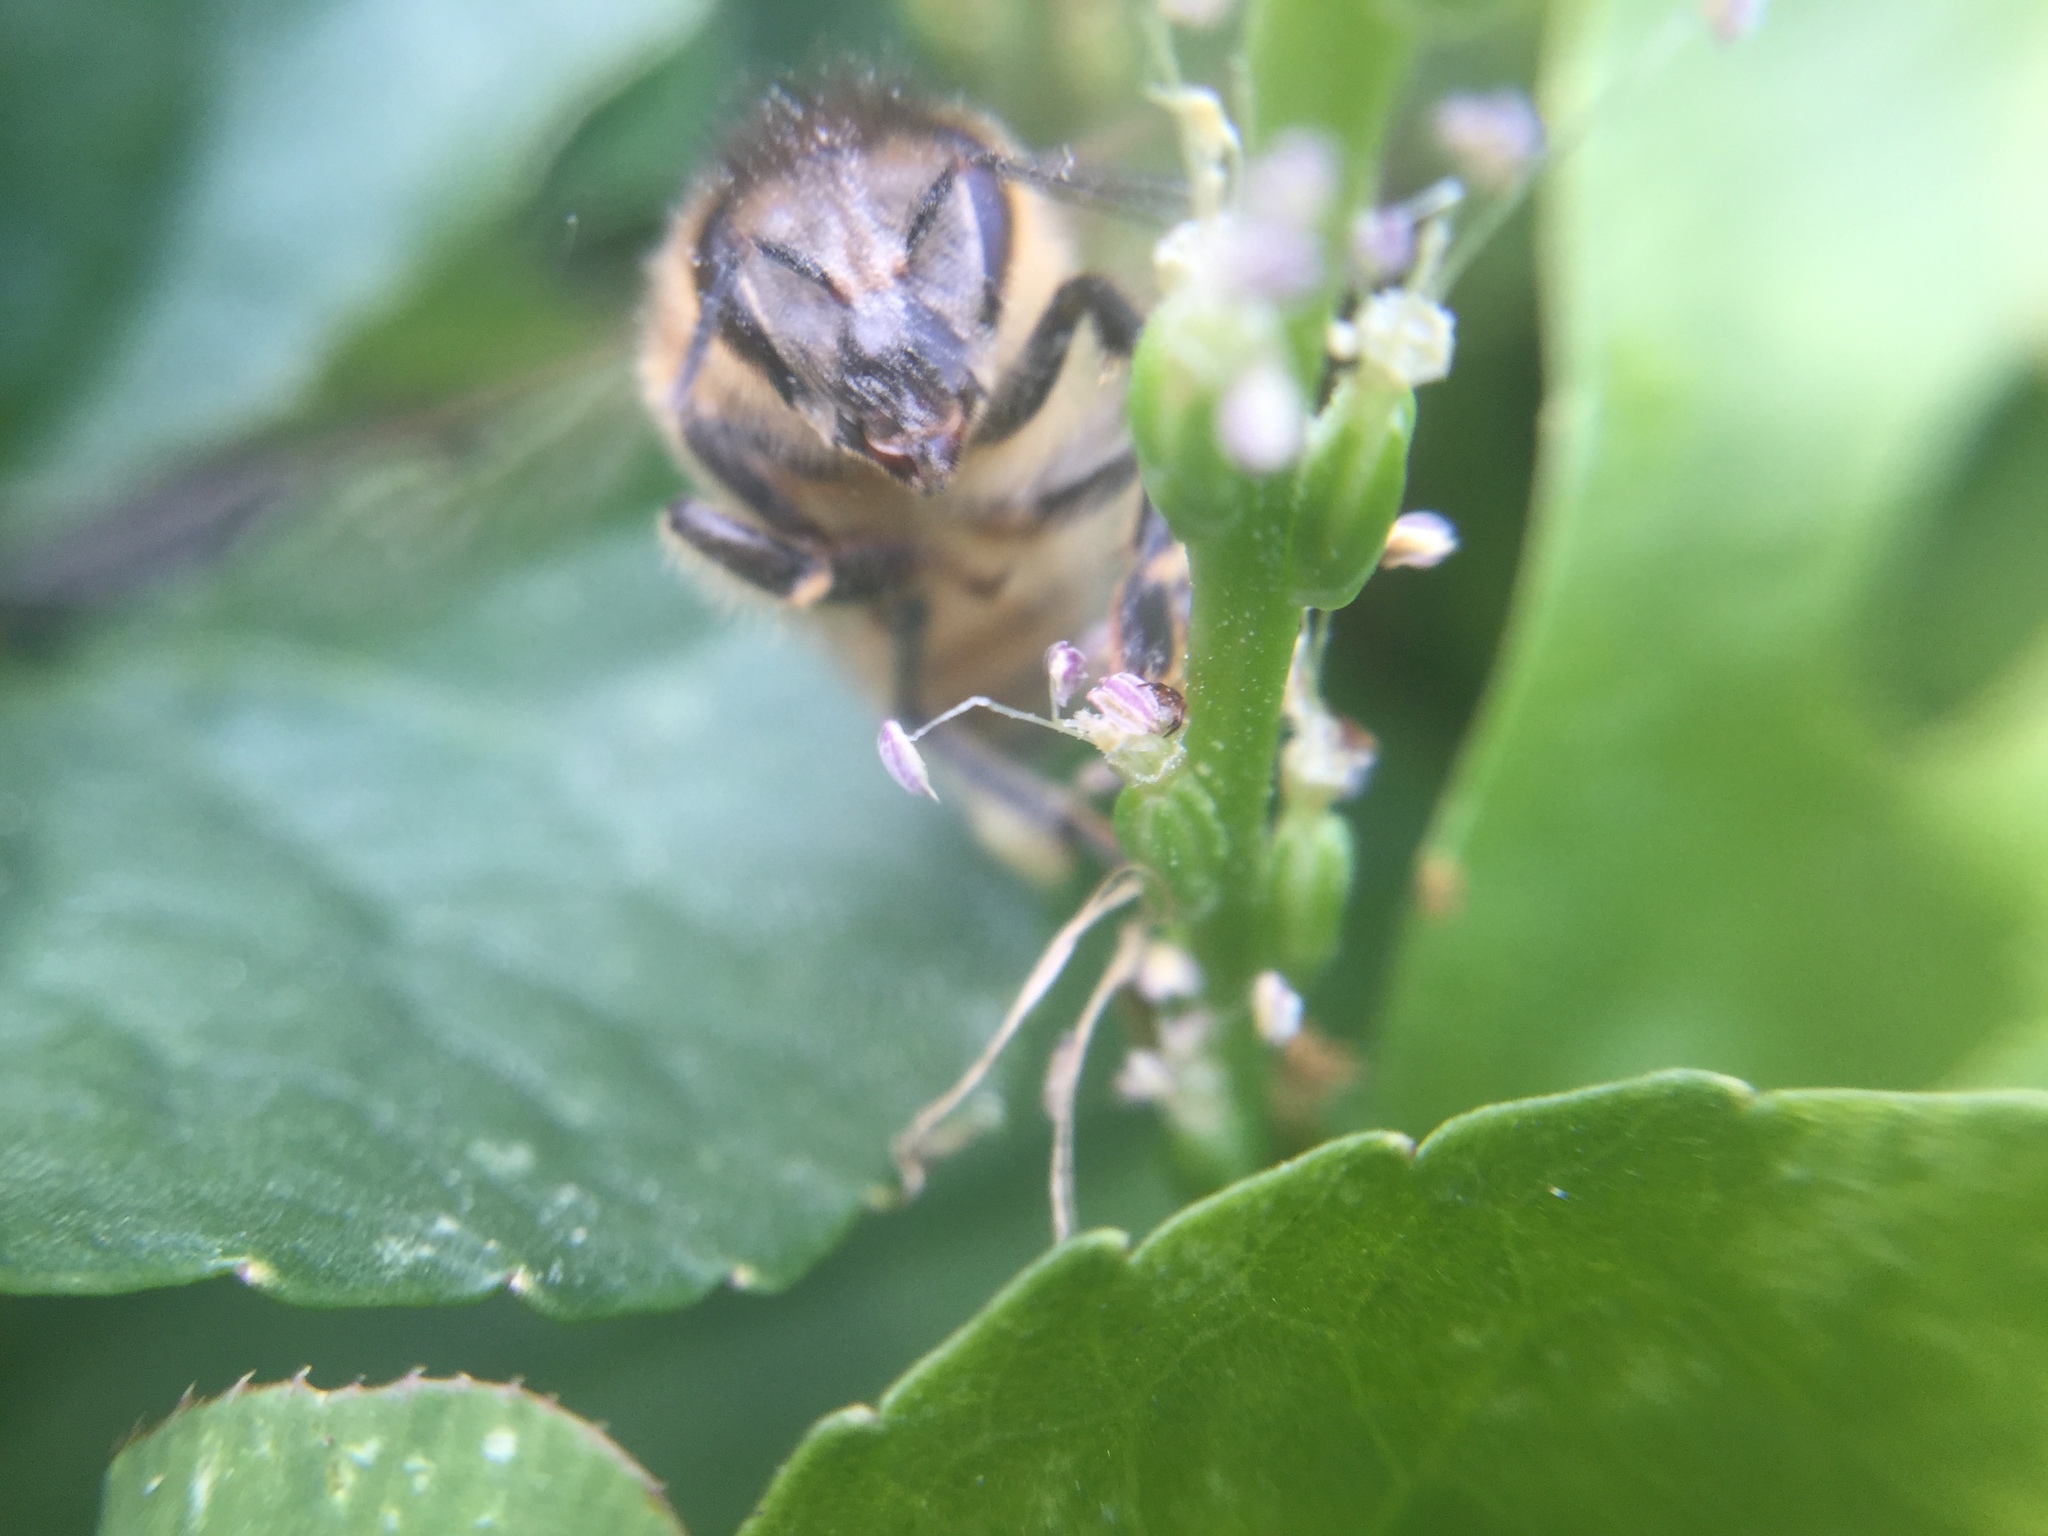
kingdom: Animalia
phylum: Arthropoda
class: Insecta
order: Hymenoptera
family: Apidae
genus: Apis
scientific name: Apis mellifera
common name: Honey bee
